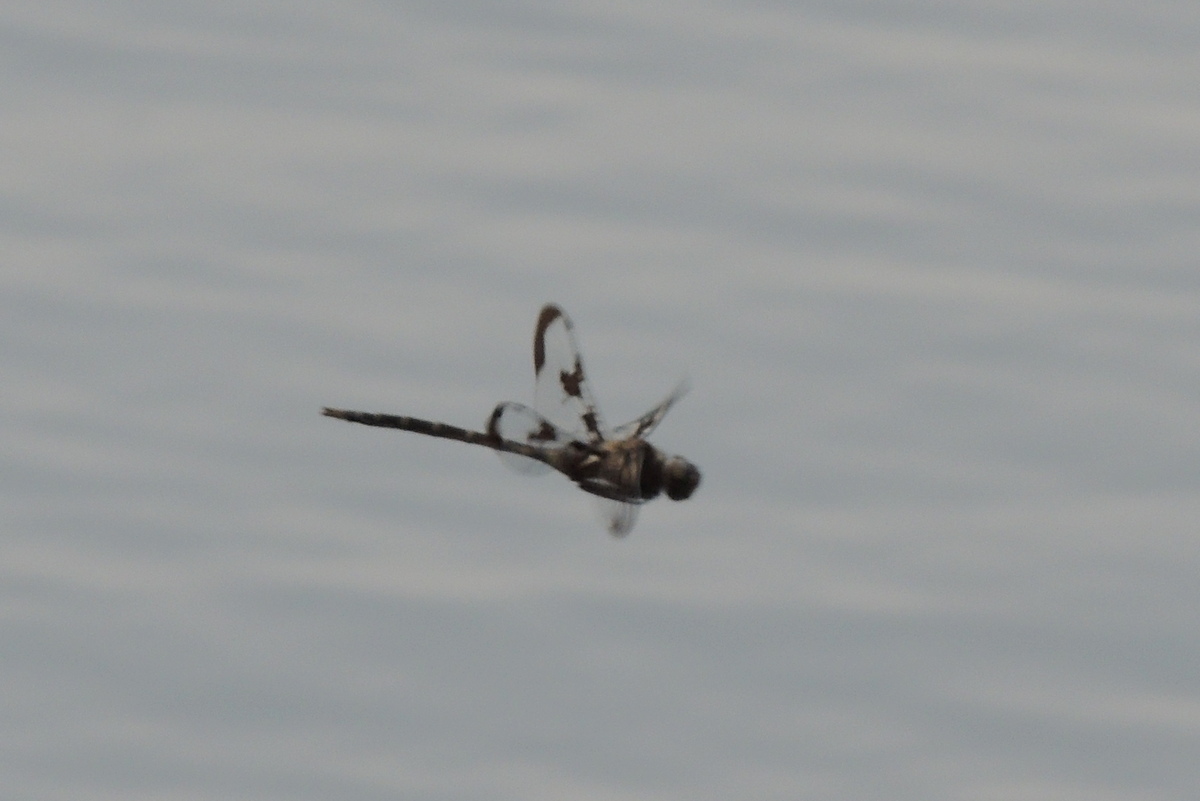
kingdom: Animalia
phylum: Arthropoda
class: Insecta
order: Odonata
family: Corduliidae
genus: Epitheca
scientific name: Epitheca princeps
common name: Prince baskettail
